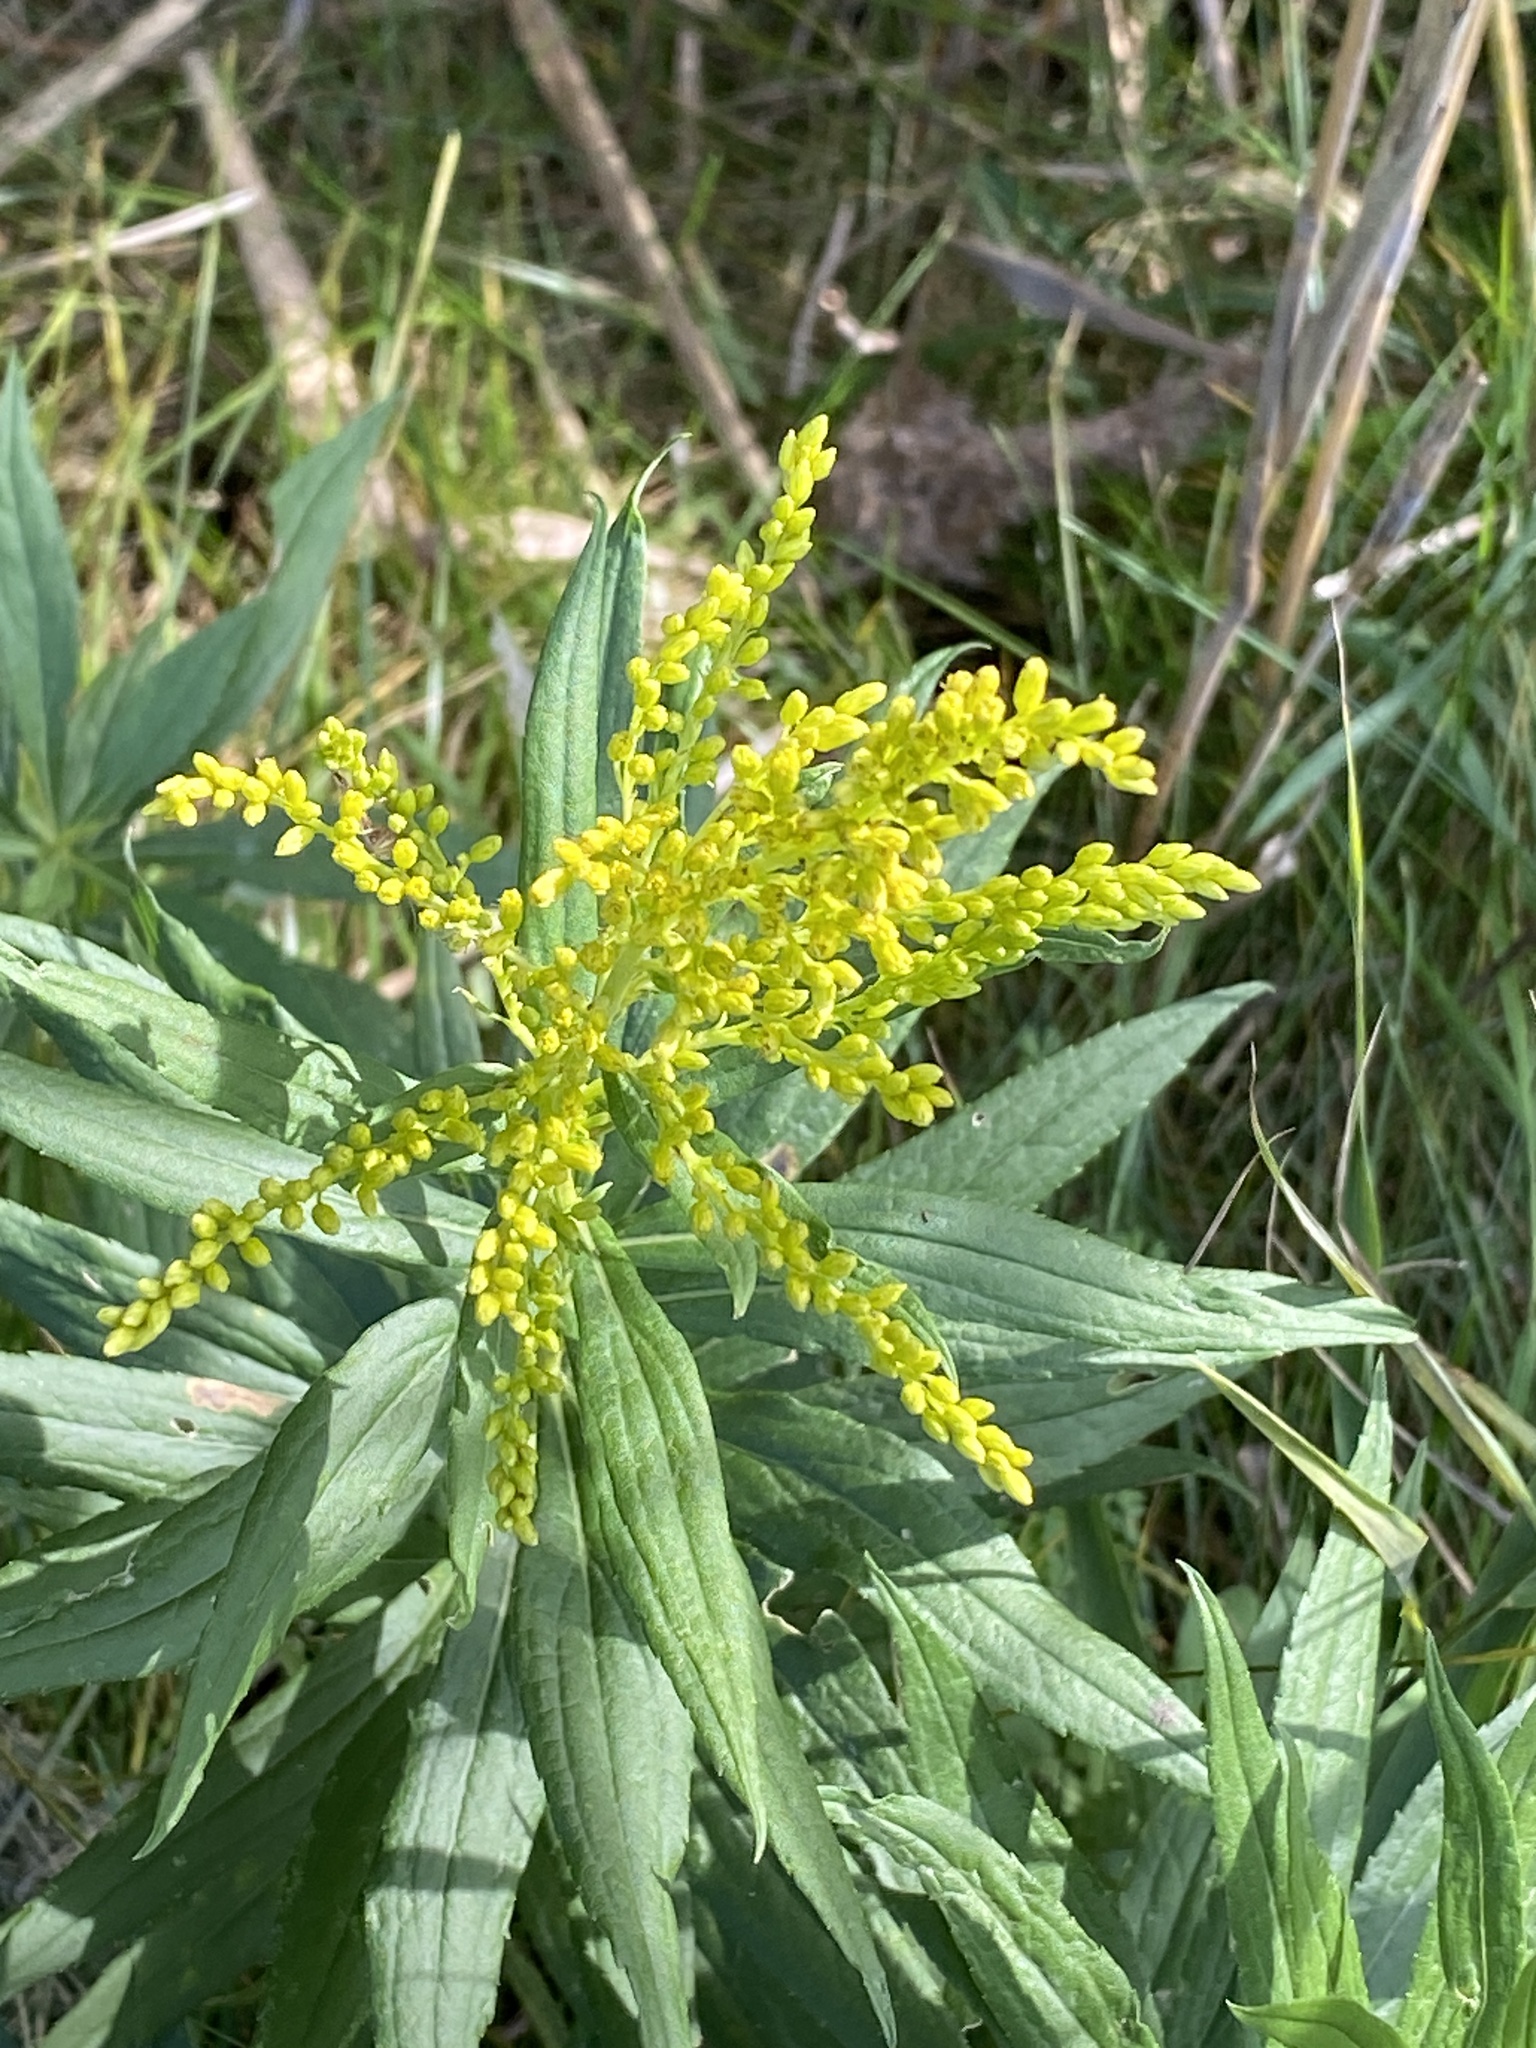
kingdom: Plantae
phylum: Tracheophyta
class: Magnoliopsida
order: Asterales
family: Asteraceae
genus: Solidago
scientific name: Solidago altissima
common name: Late goldenrod
